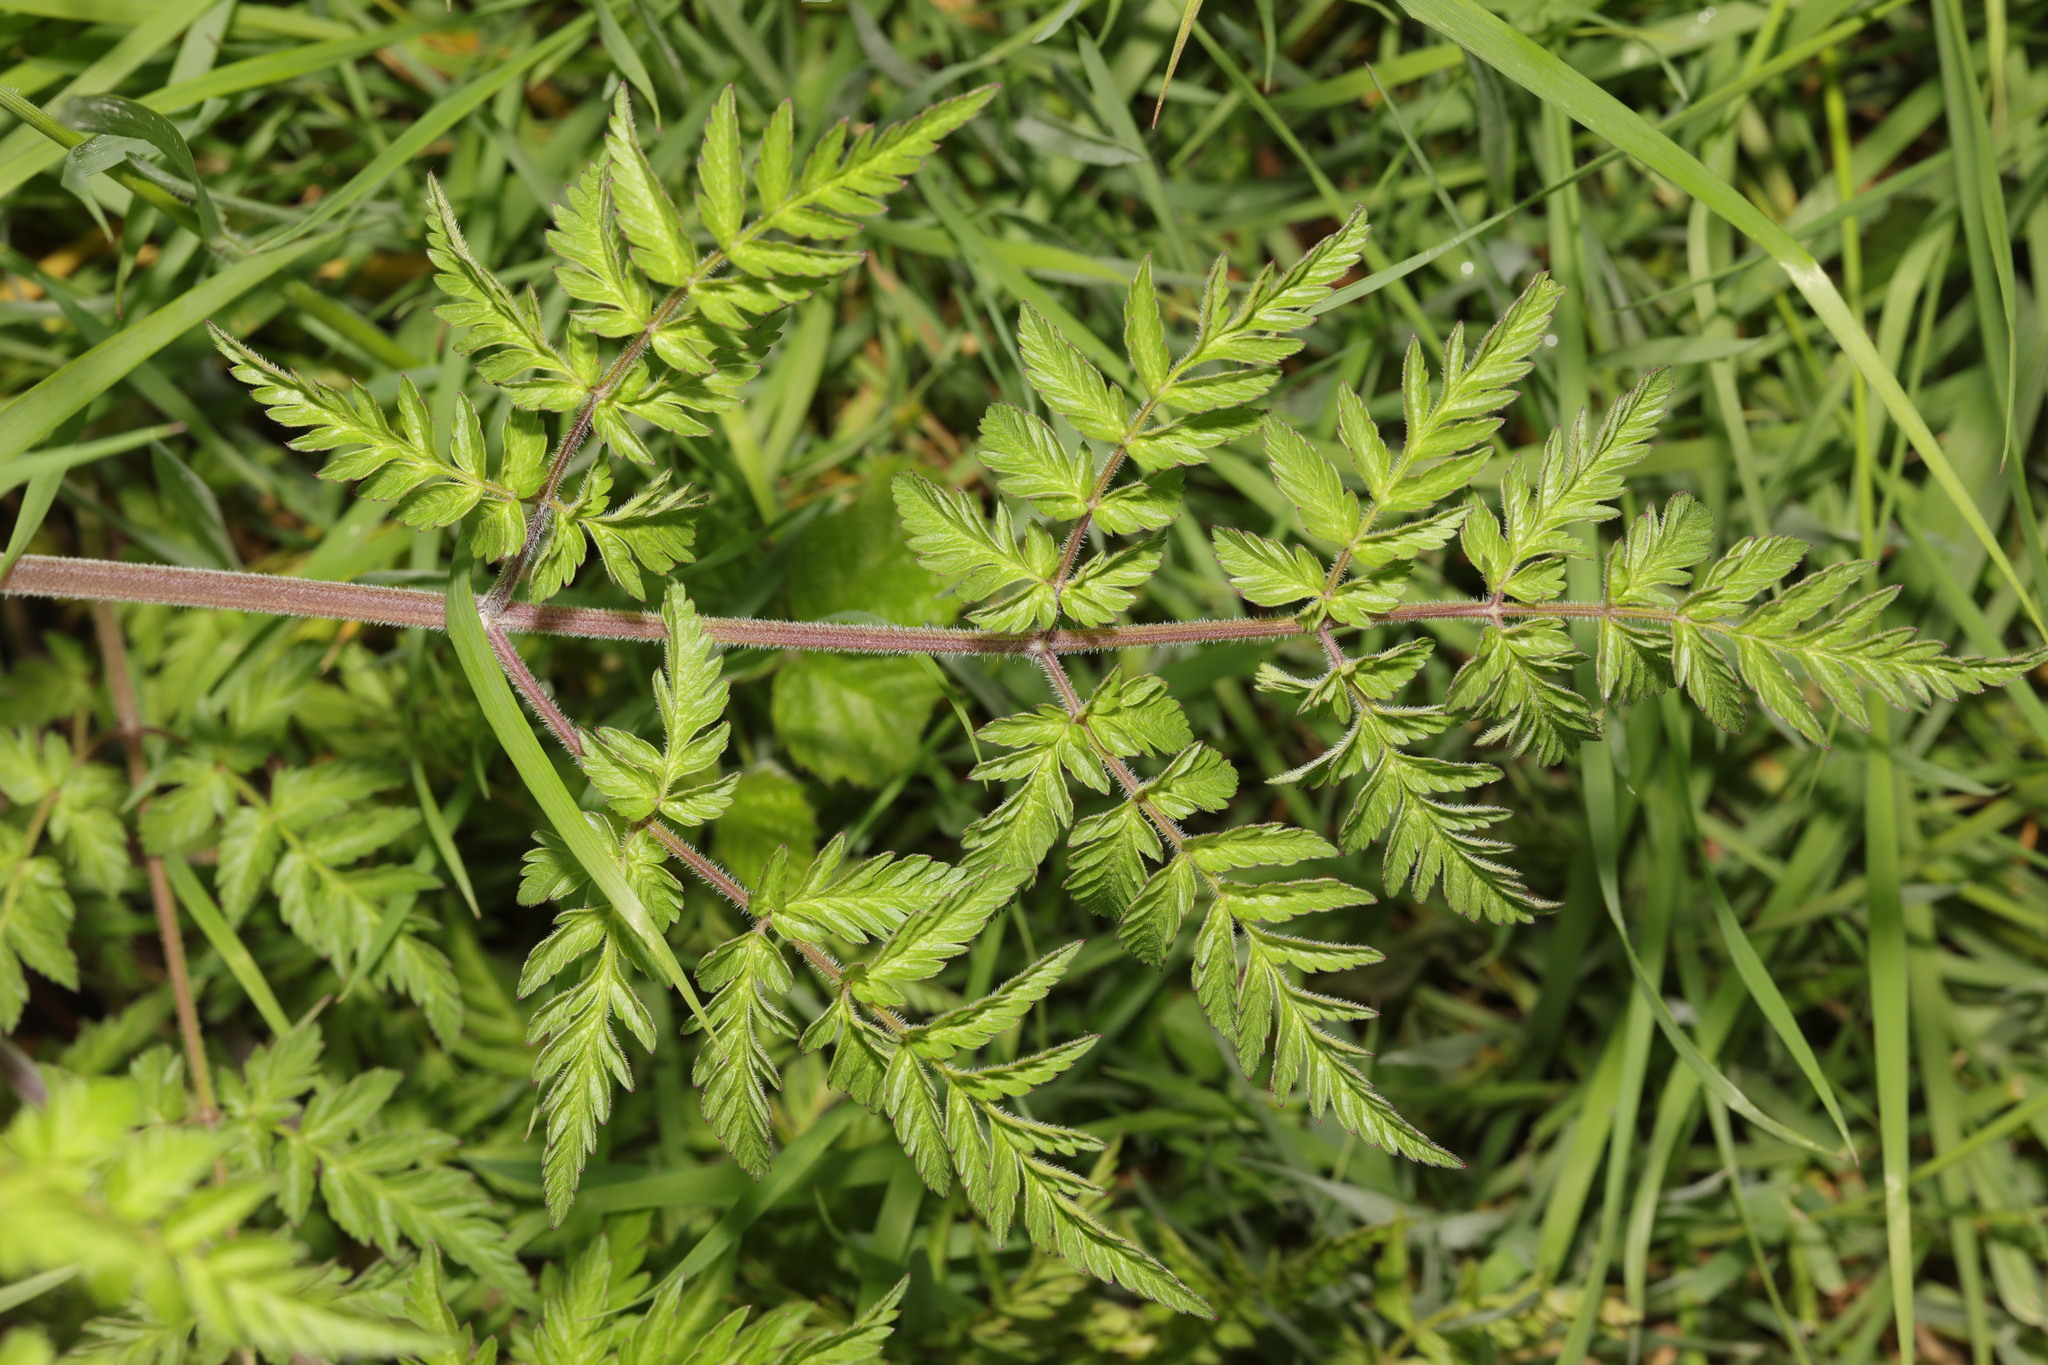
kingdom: Plantae
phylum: Tracheophyta
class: Magnoliopsida
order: Apiales
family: Apiaceae
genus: Anthriscus
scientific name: Anthriscus sylvestris
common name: Cow parsley
